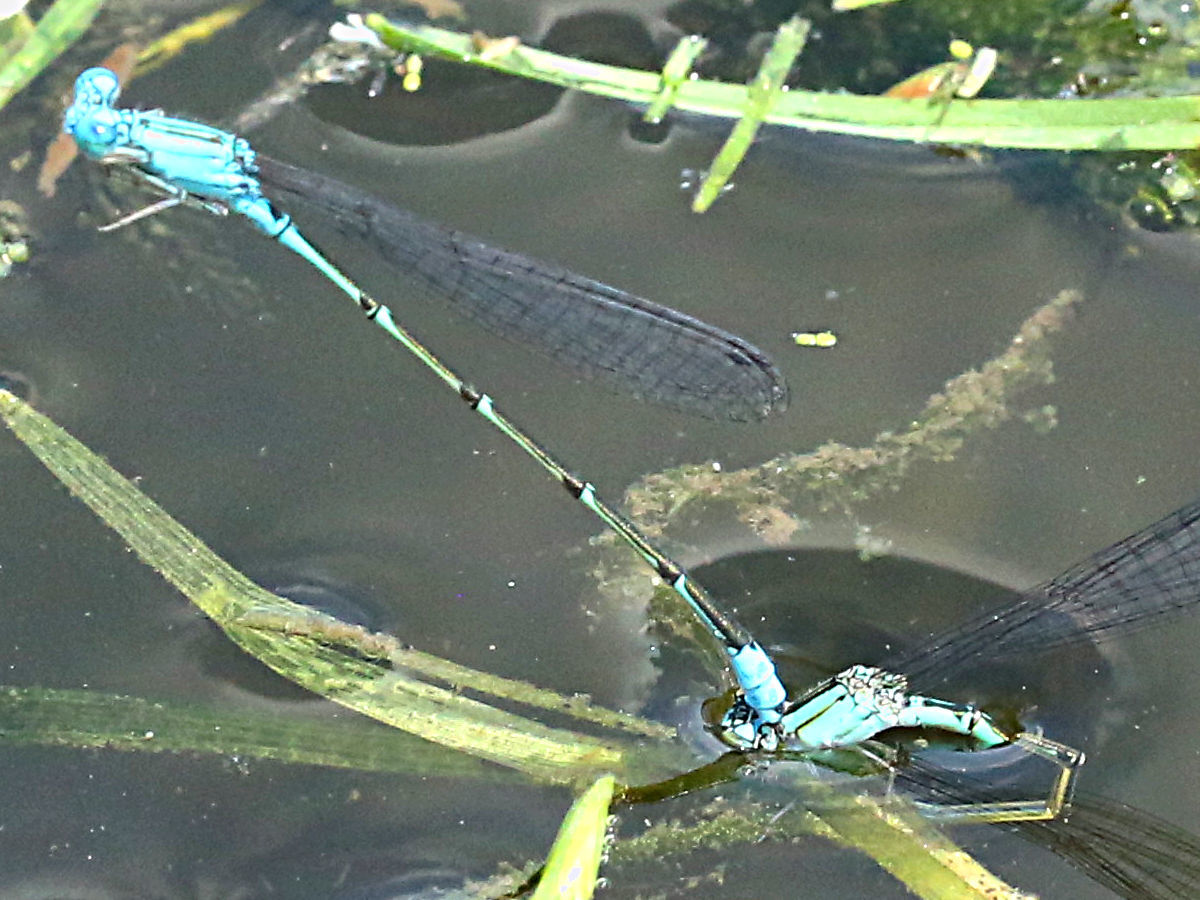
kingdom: Animalia
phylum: Arthropoda
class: Insecta
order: Odonata
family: Coenagrionidae
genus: Enallagma
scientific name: Enallagma geminatum
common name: Skimming bluet
